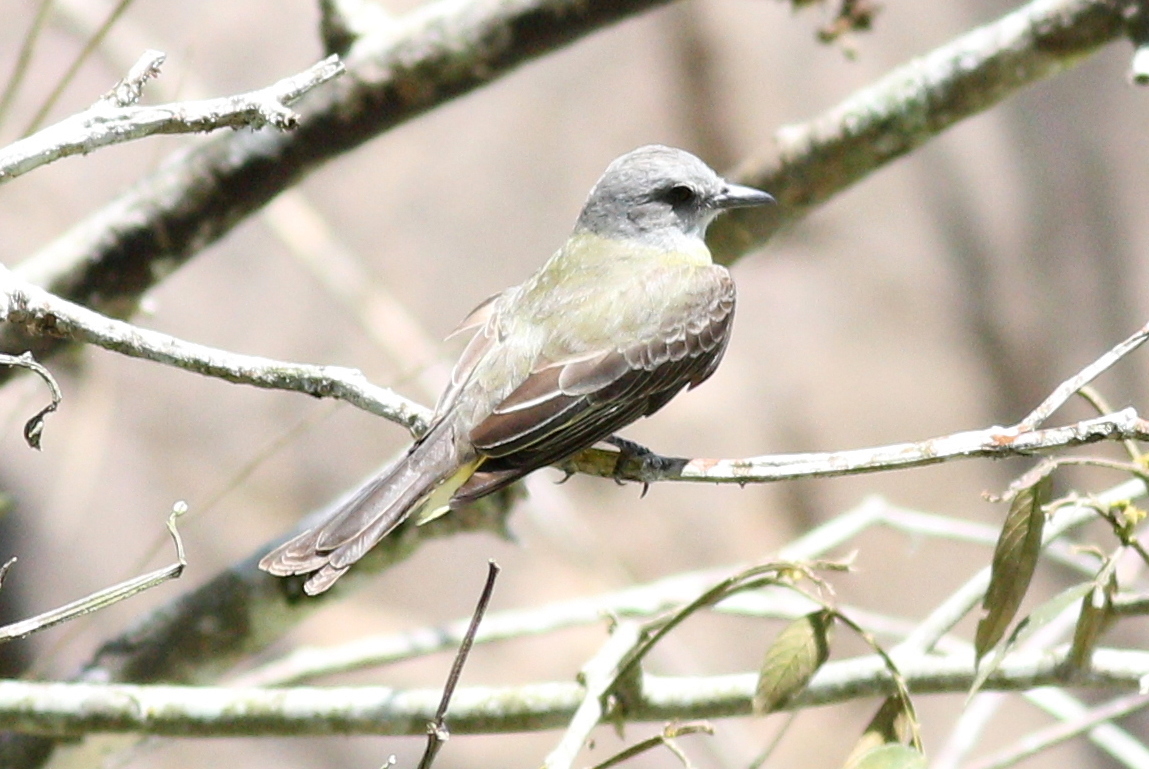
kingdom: Animalia
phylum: Chordata
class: Aves
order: Passeriformes
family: Tyrannidae
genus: Tyrannus
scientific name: Tyrannus melancholicus
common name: Tropical kingbird
